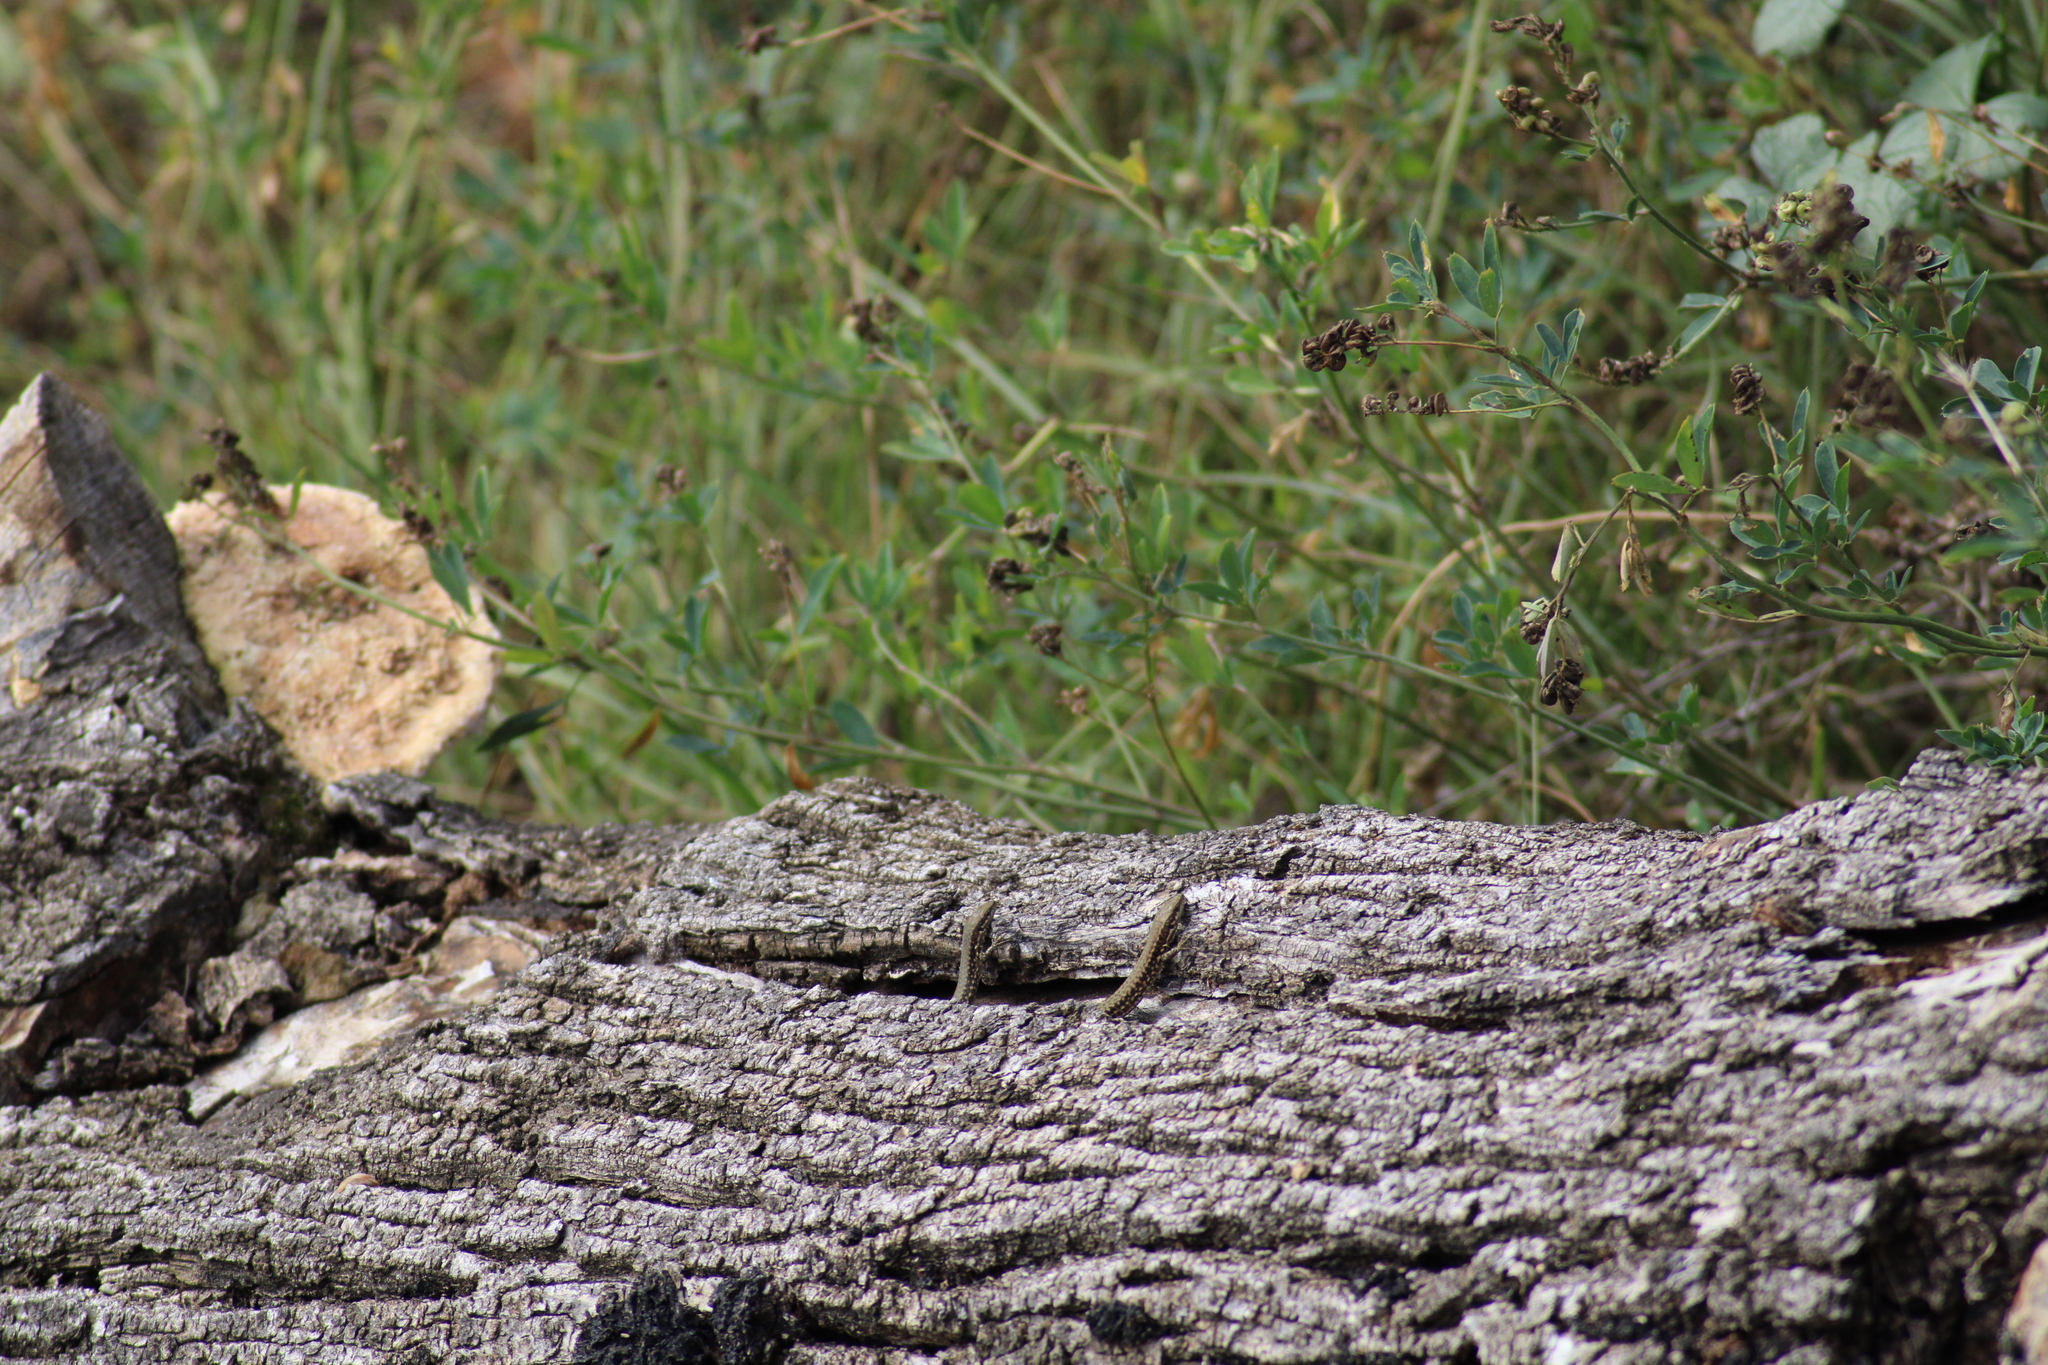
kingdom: Animalia
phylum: Chordata
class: Squamata
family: Lacertidae
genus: Podarcis
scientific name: Podarcis muralis
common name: Common wall lizard
